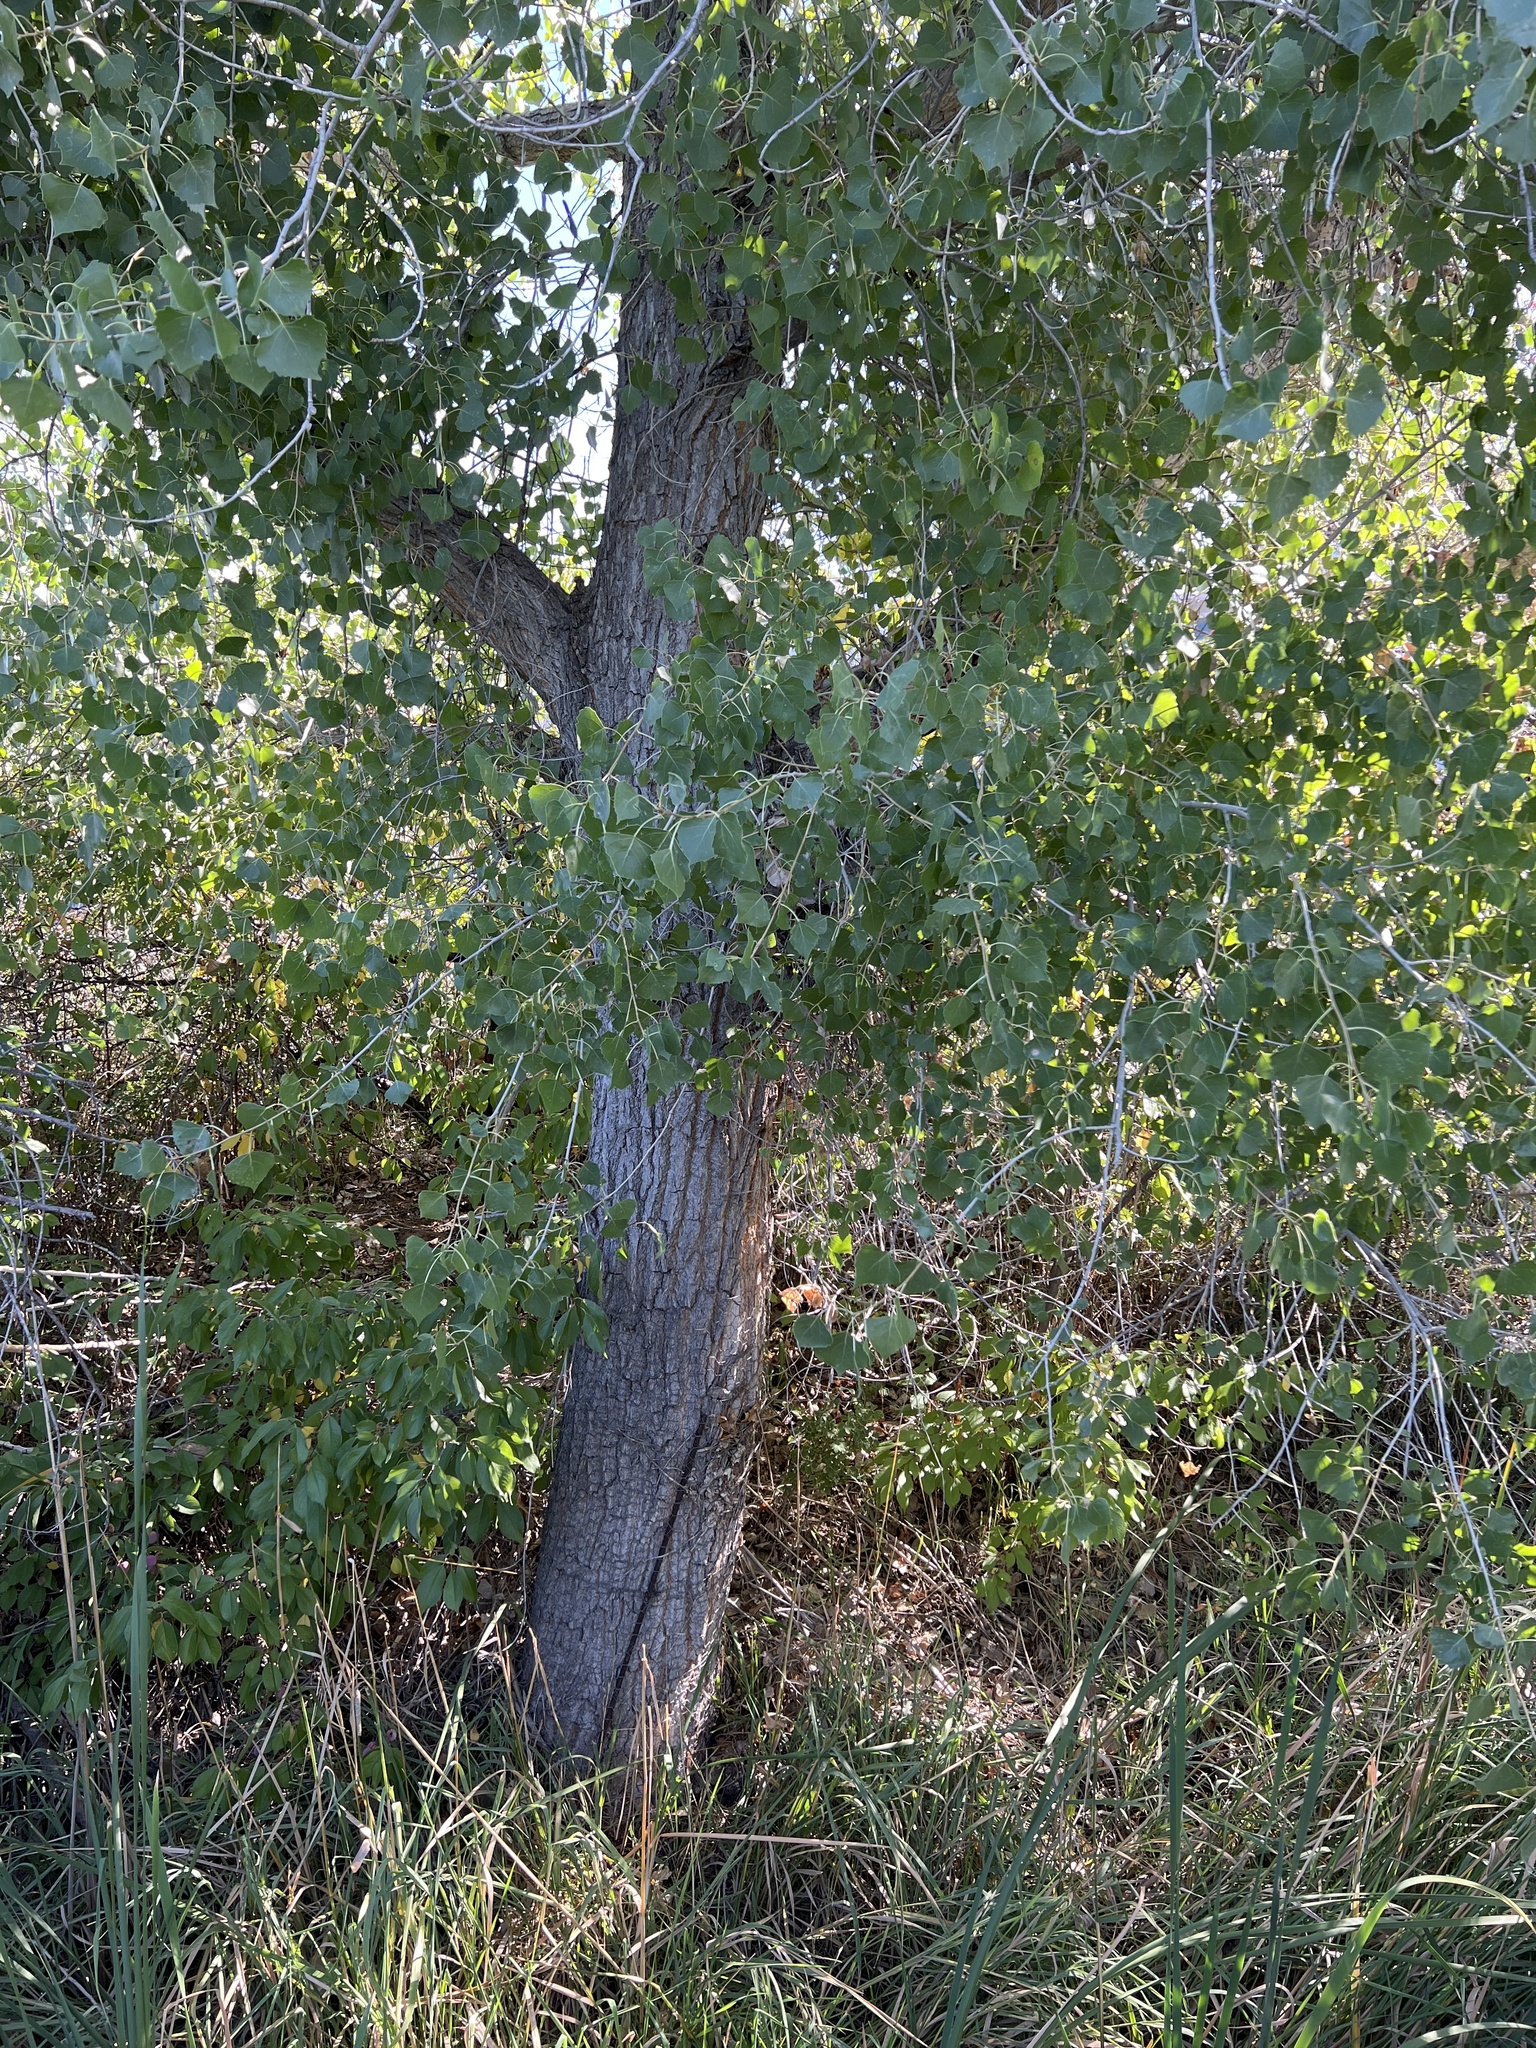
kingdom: Plantae
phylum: Tracheophyta
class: Magnoliopsida
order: Malpighiales
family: Salicaceae
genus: Populus
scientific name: Populus deltoides
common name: Eastern cottonwood
